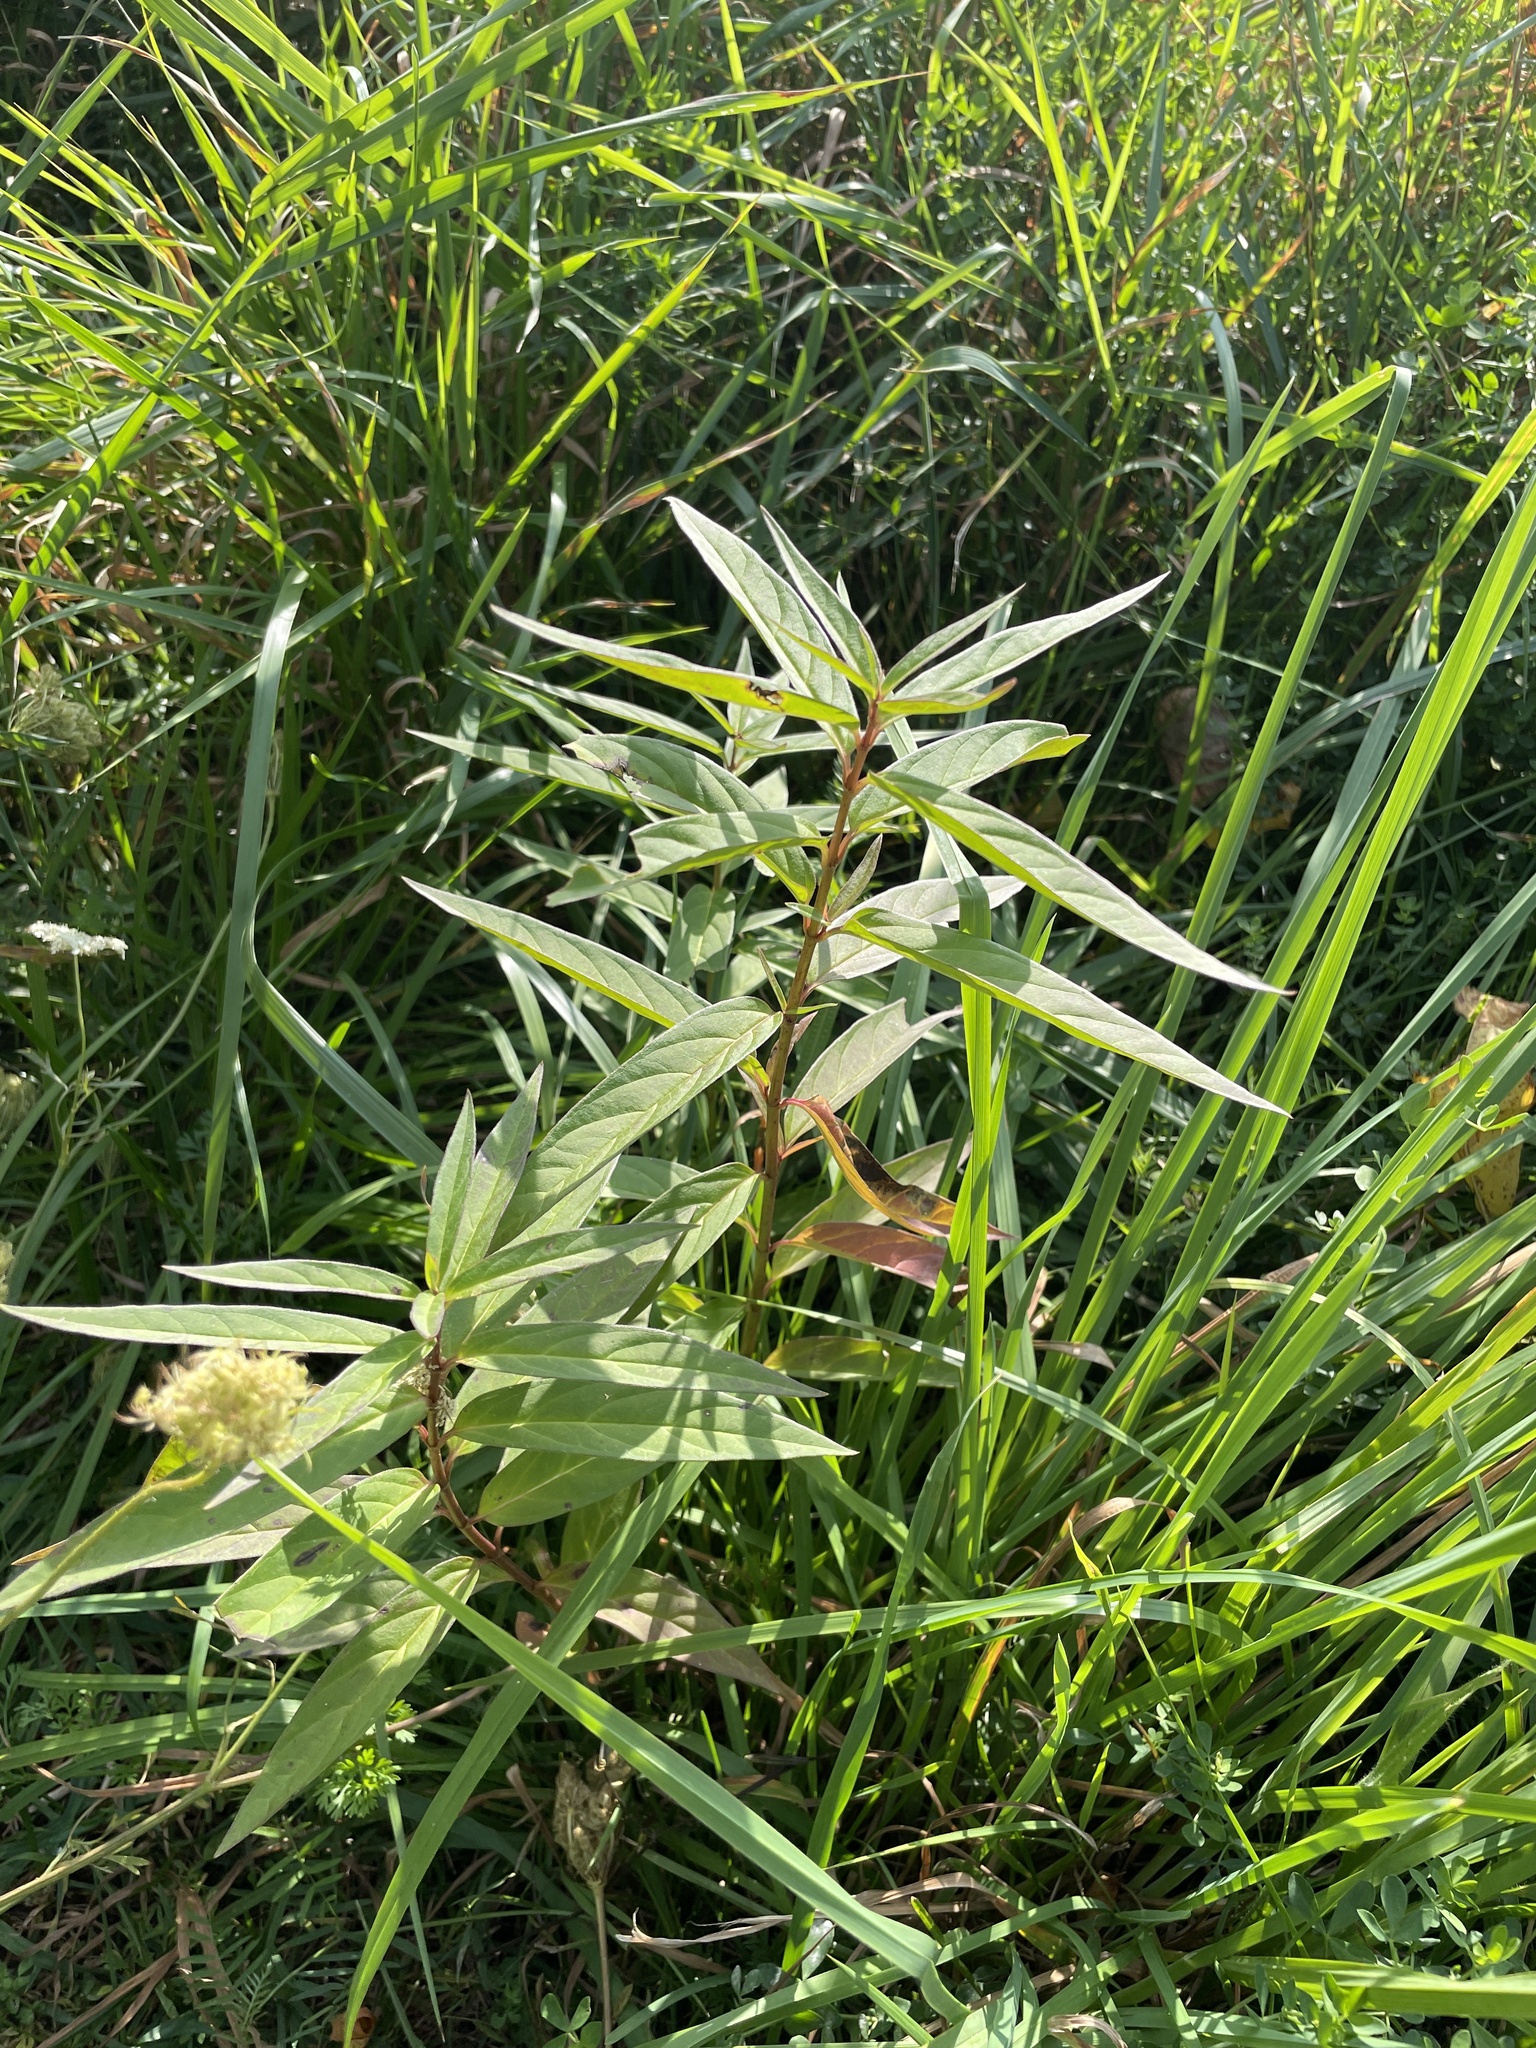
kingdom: Plantae
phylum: Tracheophyta
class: Magnoliopsida
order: Gentianales
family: Apocynaceae
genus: Asclepias
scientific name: Asclepias incarnata
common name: Swamp milkweed
